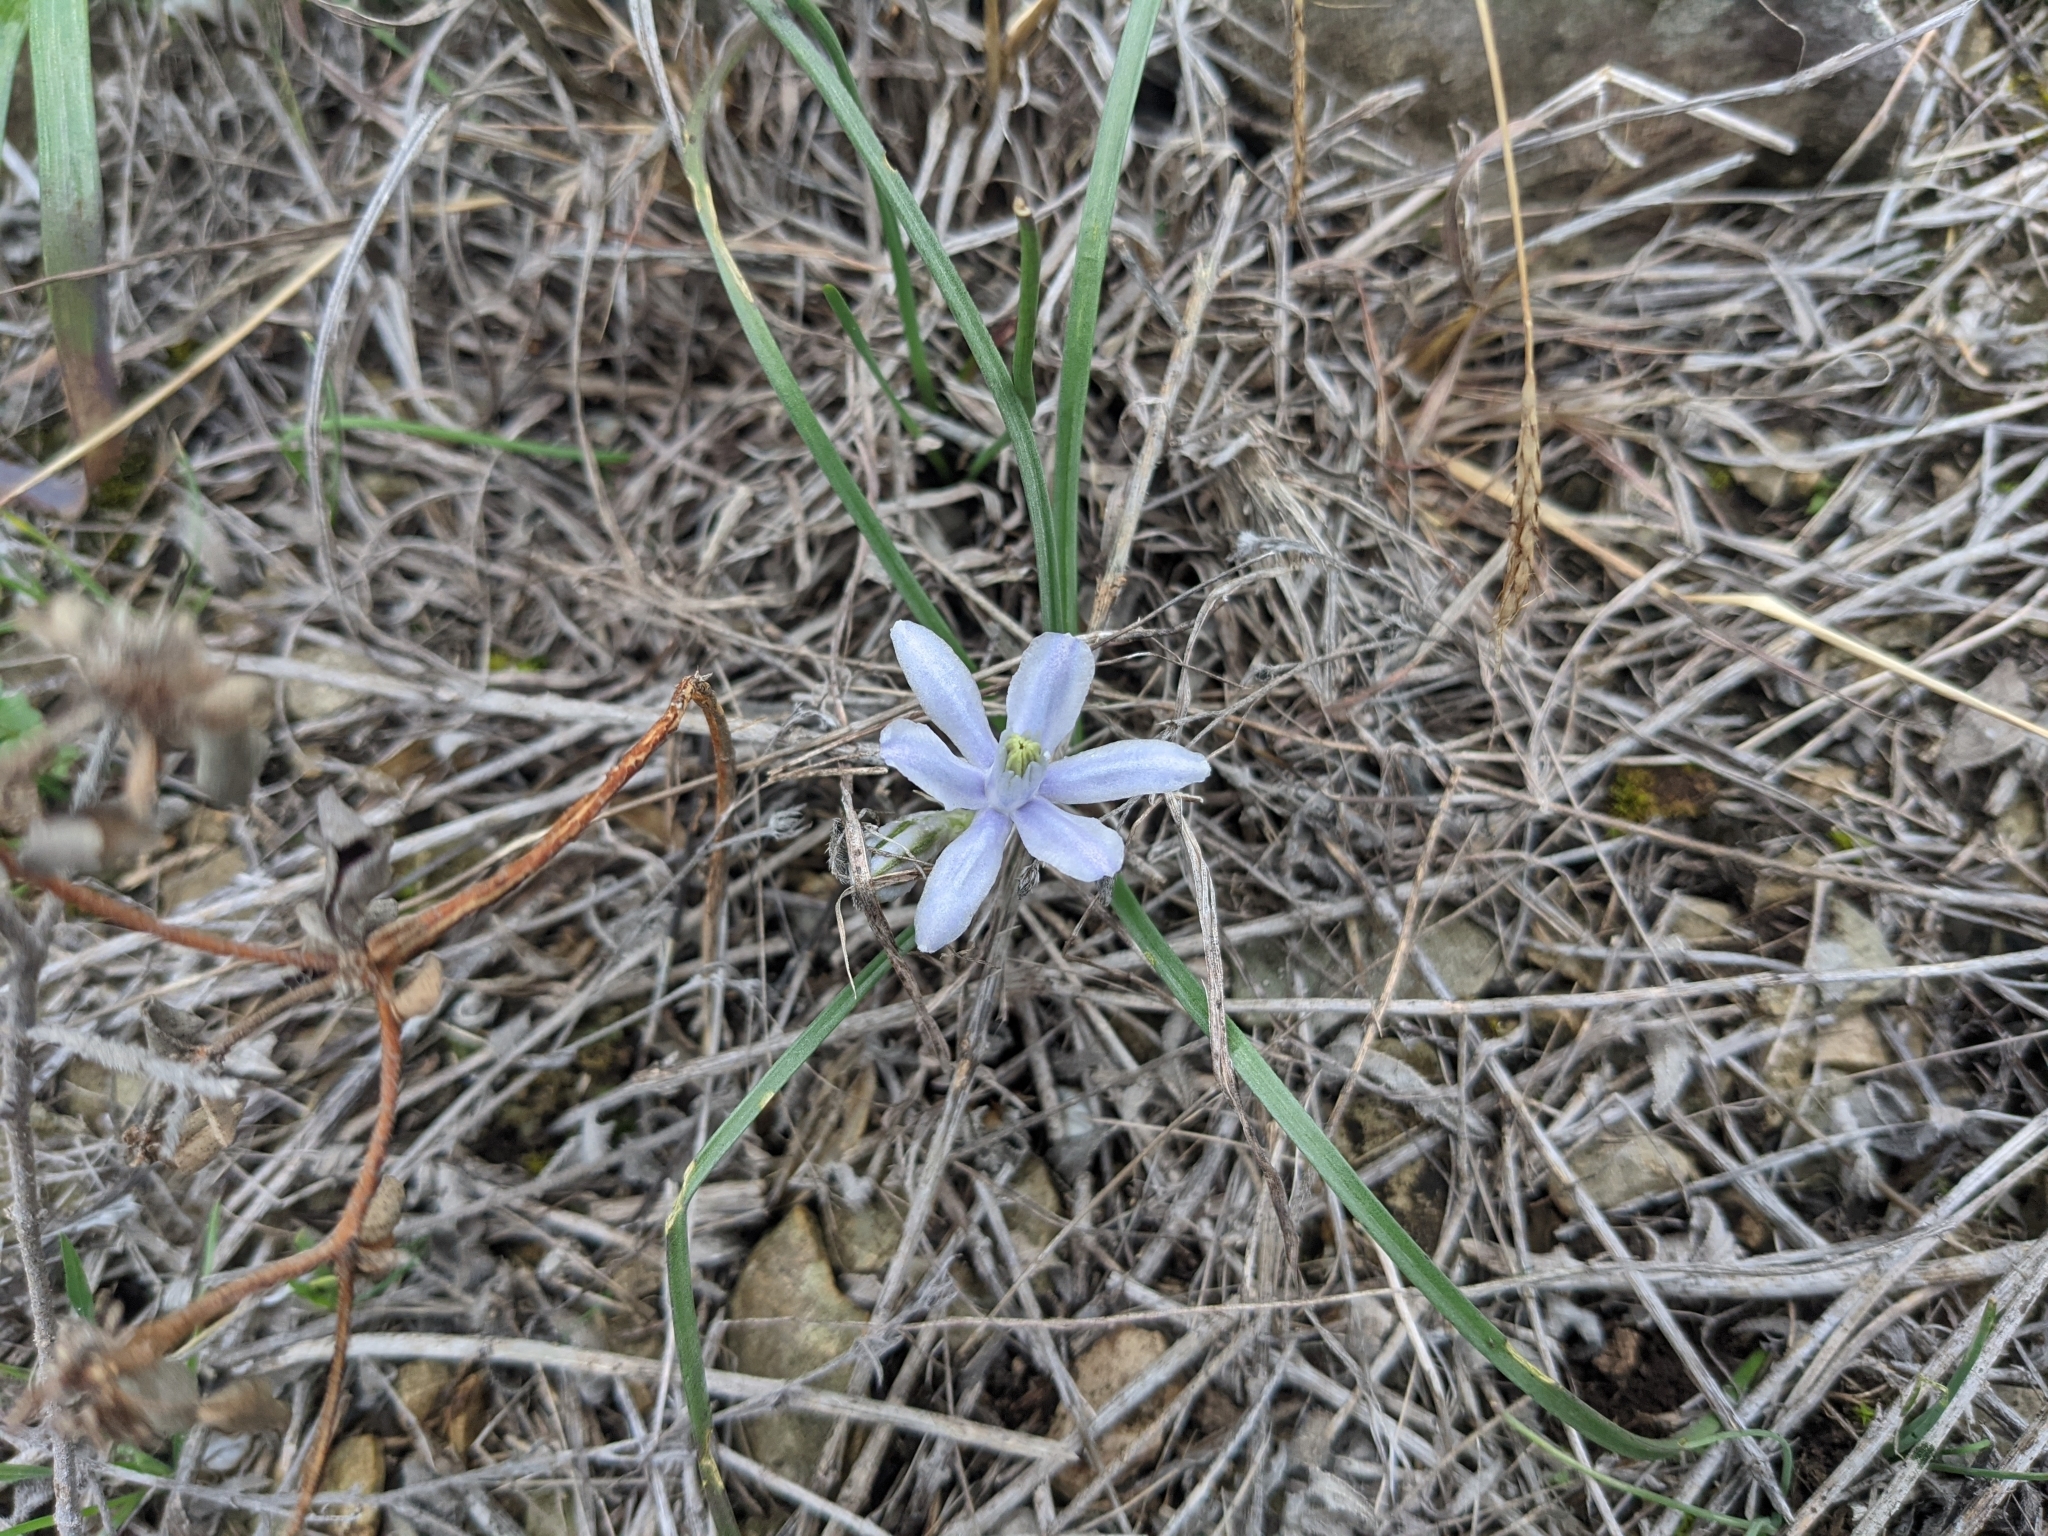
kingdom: Plantae
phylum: Tracheophyta
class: Liliopsida
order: Asparagales
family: Asparagaceae
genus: Androstephium
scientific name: Androstephium coeruleum
